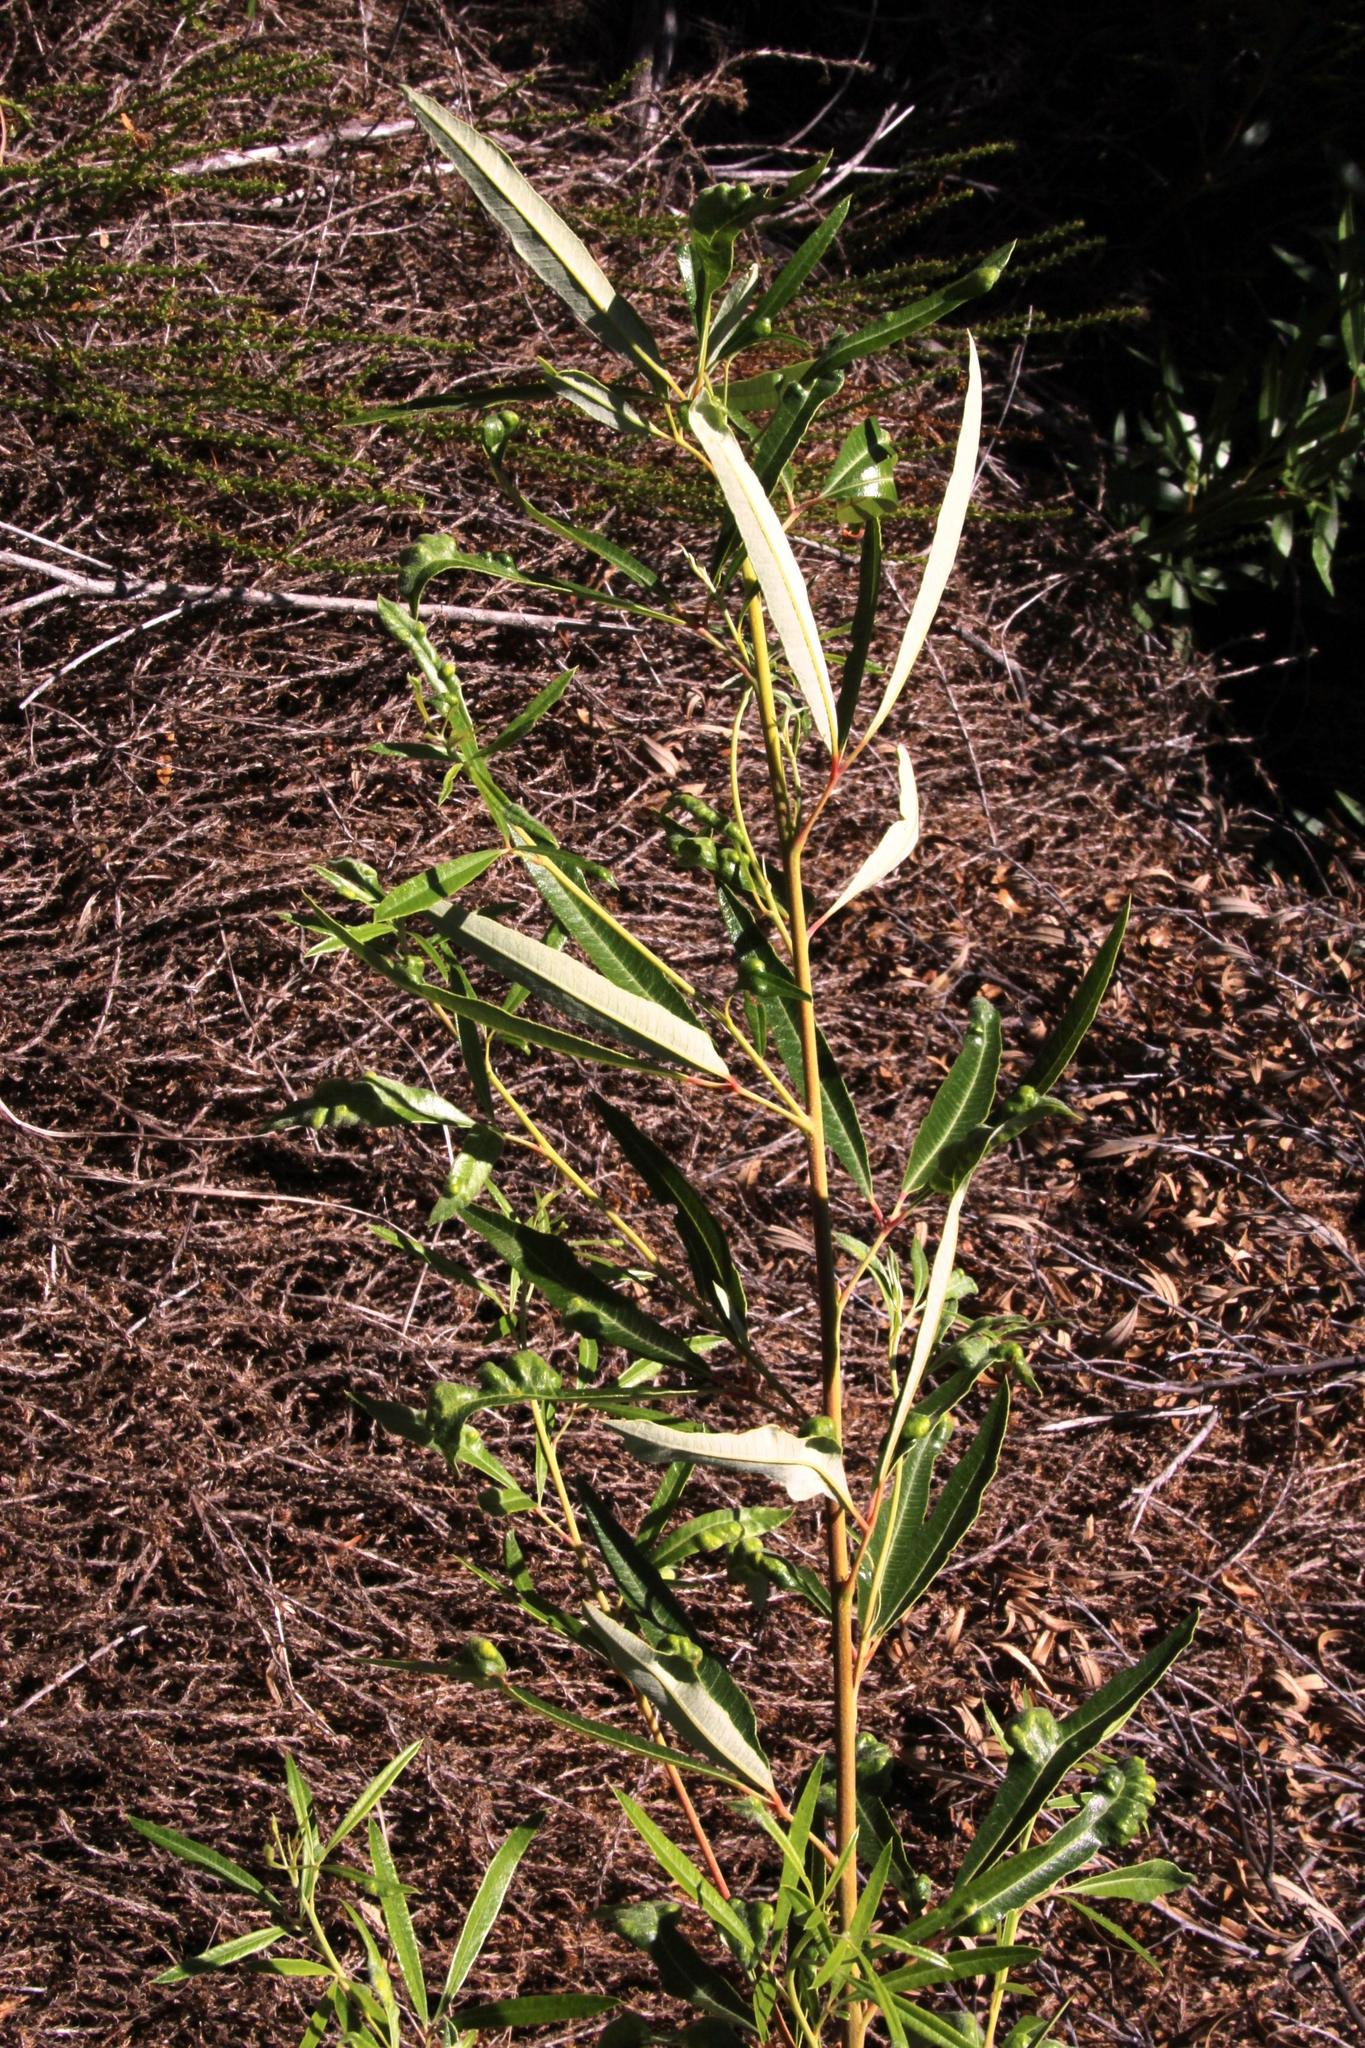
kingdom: Plantae
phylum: Tracheophyta
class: Magnoliopsida
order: Sapindales
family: Anacardiaceae
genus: Searsia
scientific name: Searsia angustifolia
